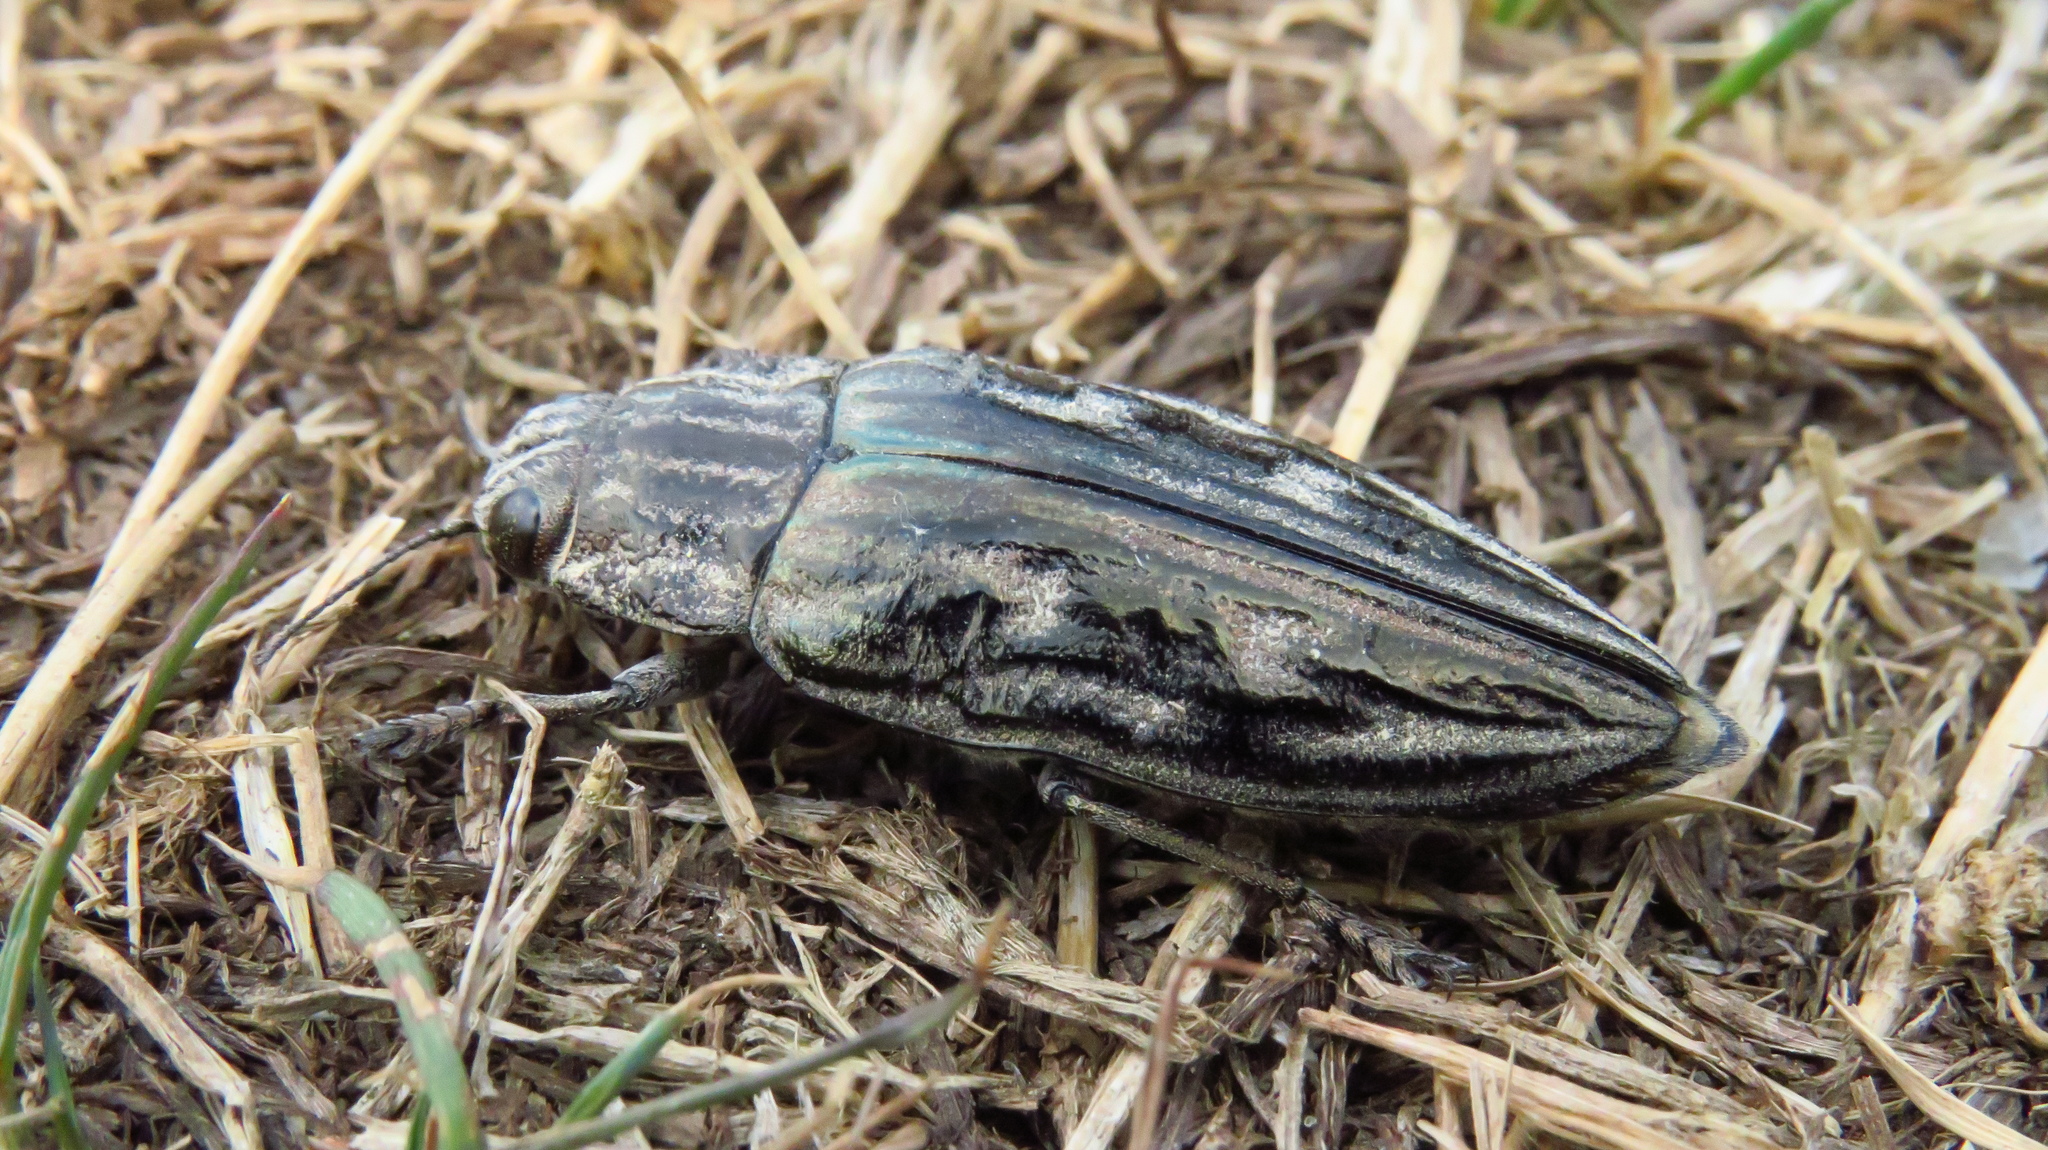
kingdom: Animalia
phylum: Arthropoda
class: Insecta
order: Coleoptera
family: Buprestidae
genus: Chalcophora
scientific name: Chalcophora mariana
